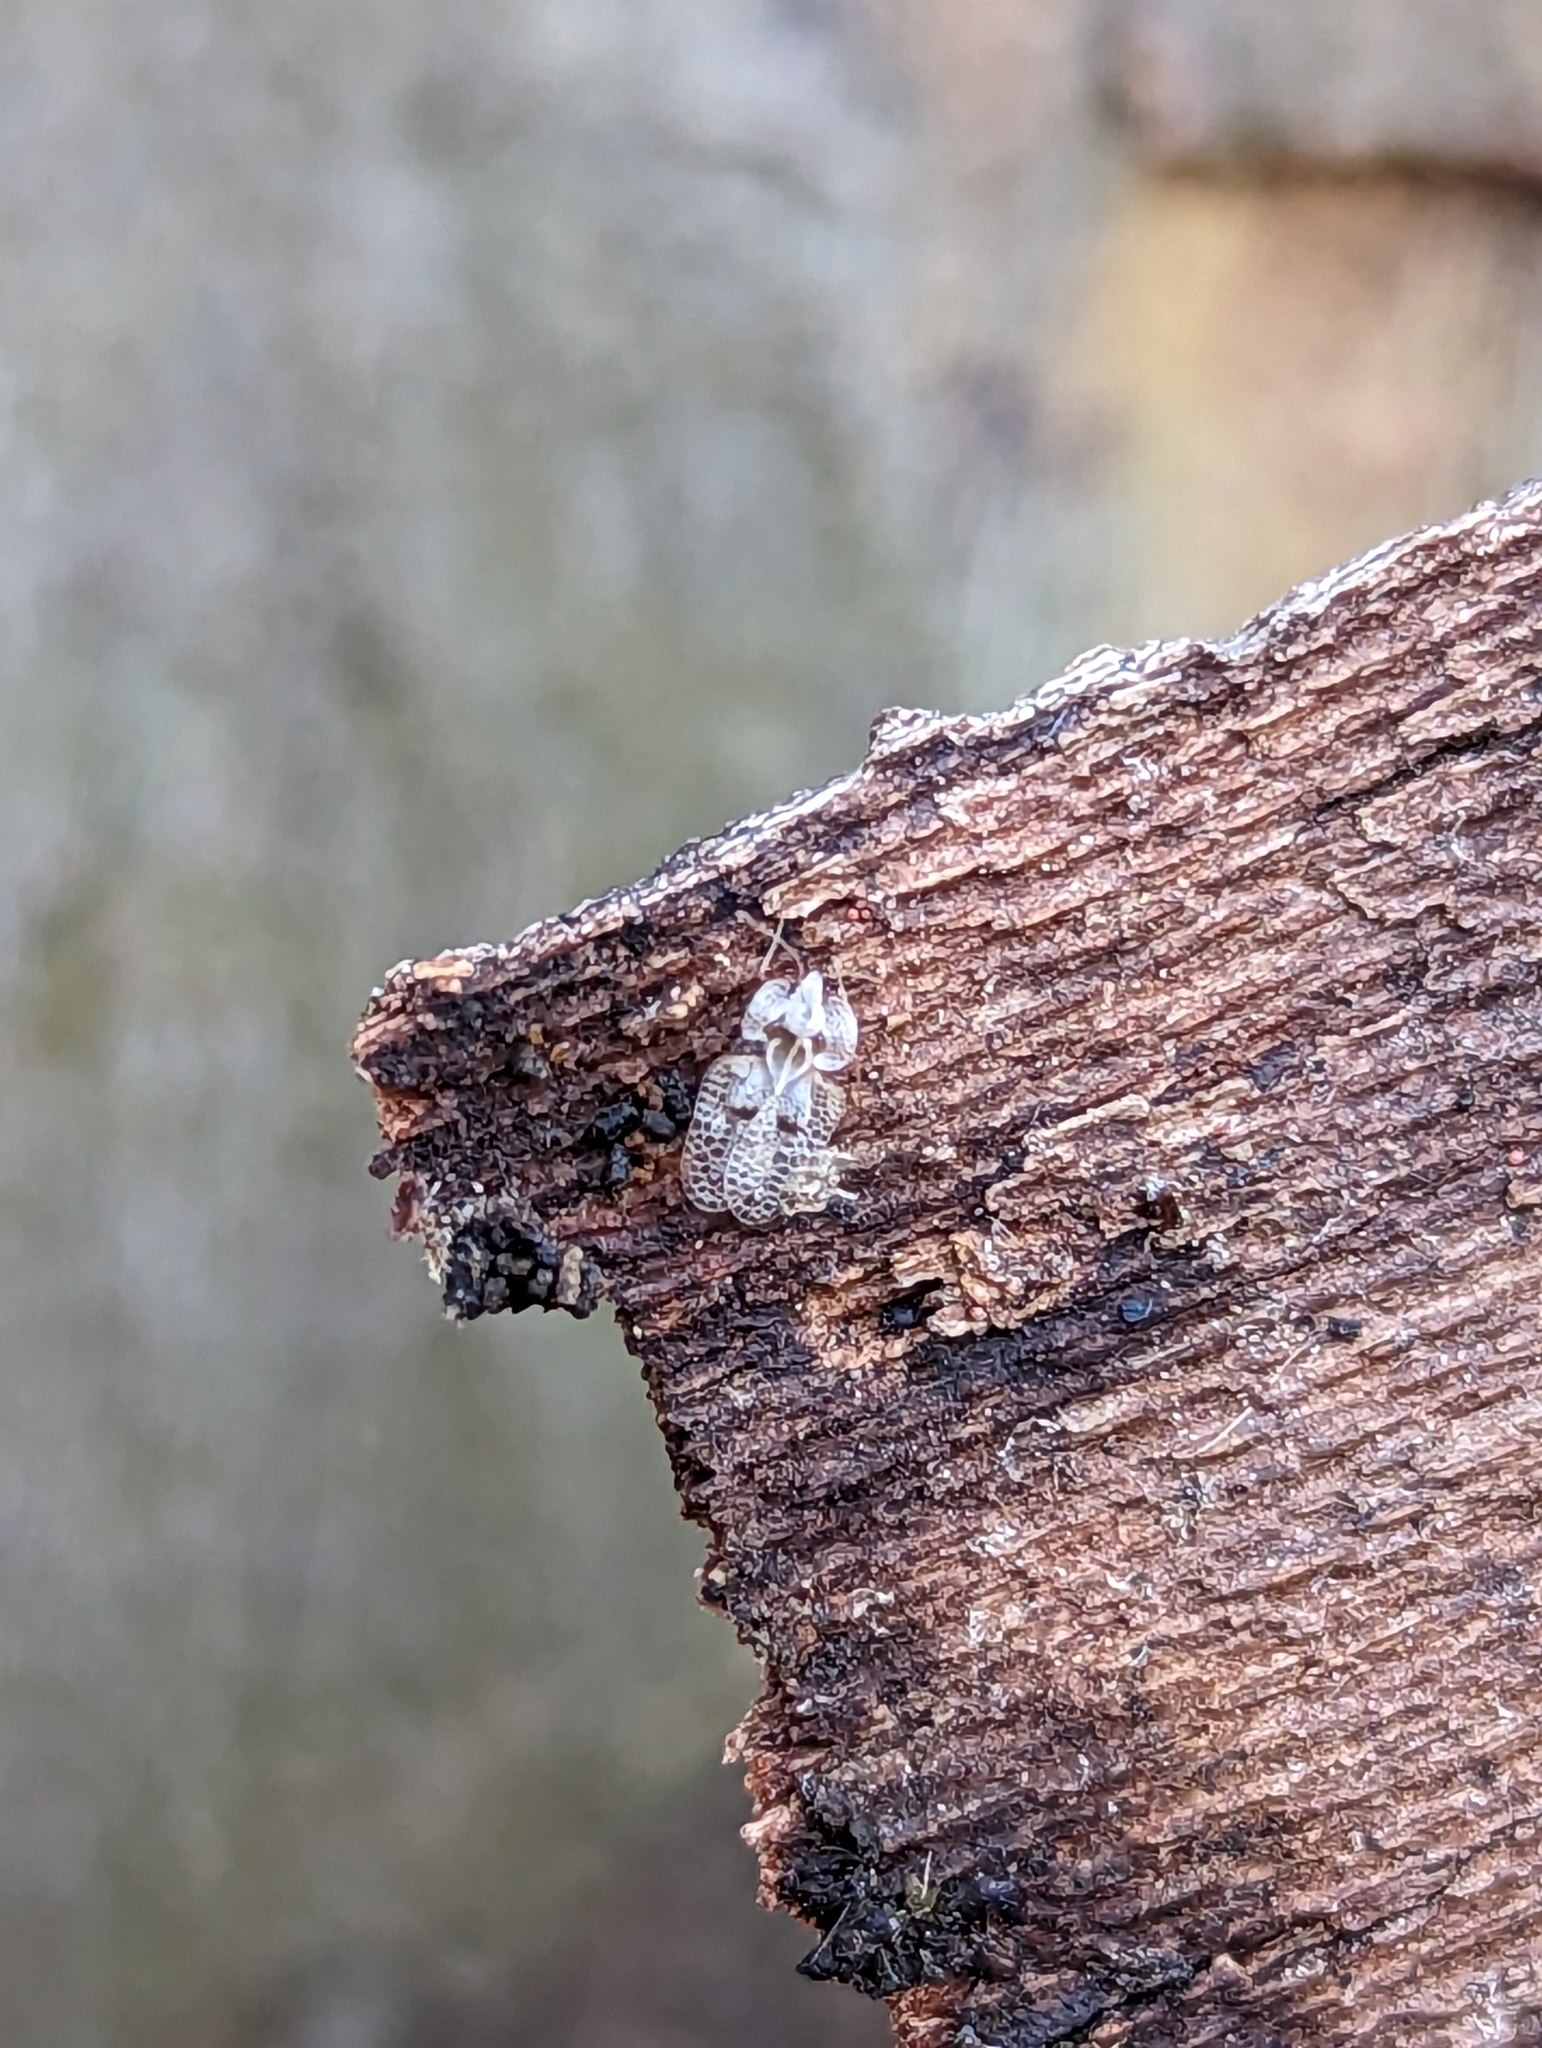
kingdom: Animalia
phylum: Arthropoda
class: Insecta
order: Hemiptera
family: Tingidae
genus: Corythucha
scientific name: Corythucha ciliata
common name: Sycamore lace bug
